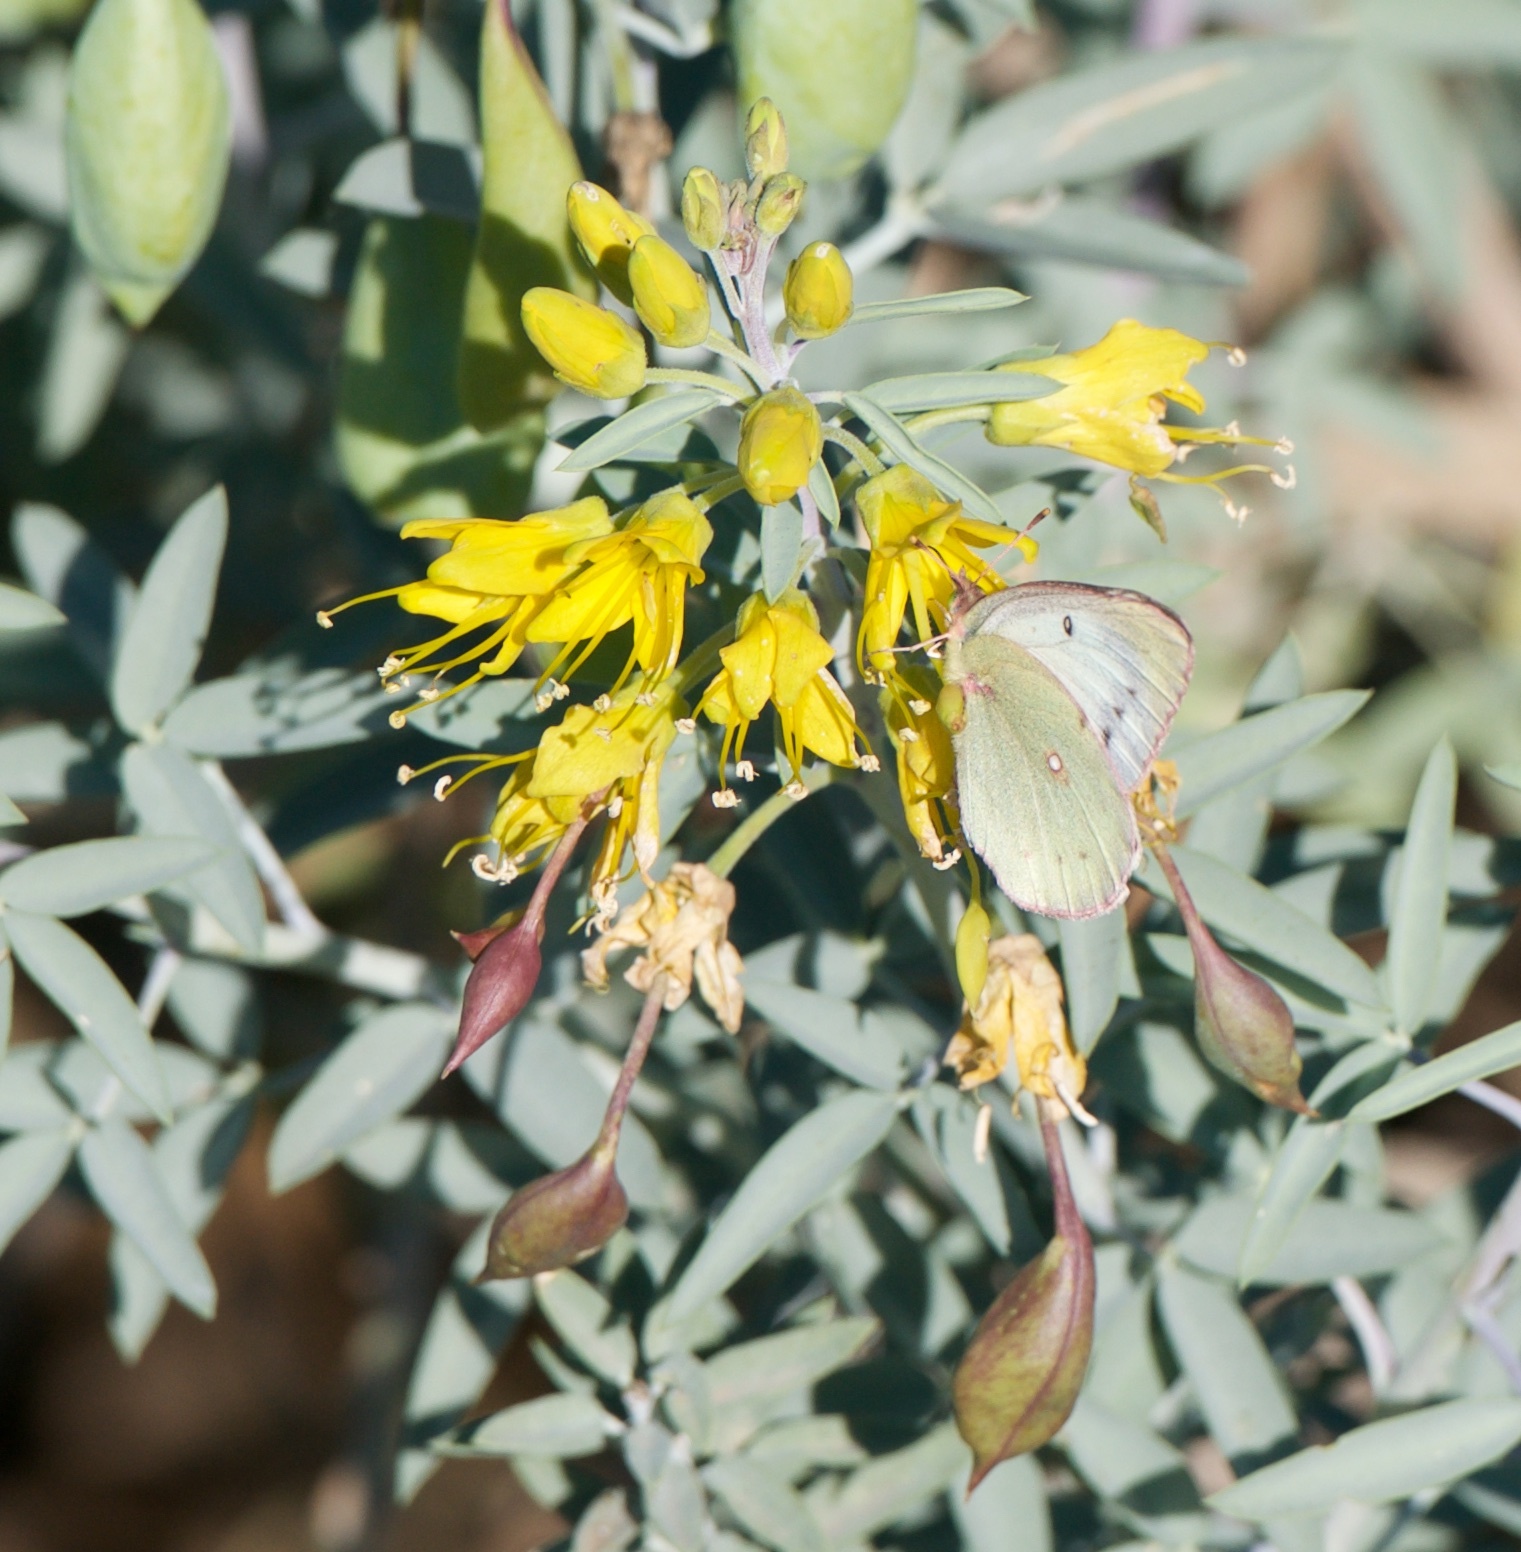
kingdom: Animalia
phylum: Arthropoda
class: Insecta
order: Lepidoptera
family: Pieridae
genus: Colias
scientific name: Colias eurytheme
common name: Alfalfa butterfly
